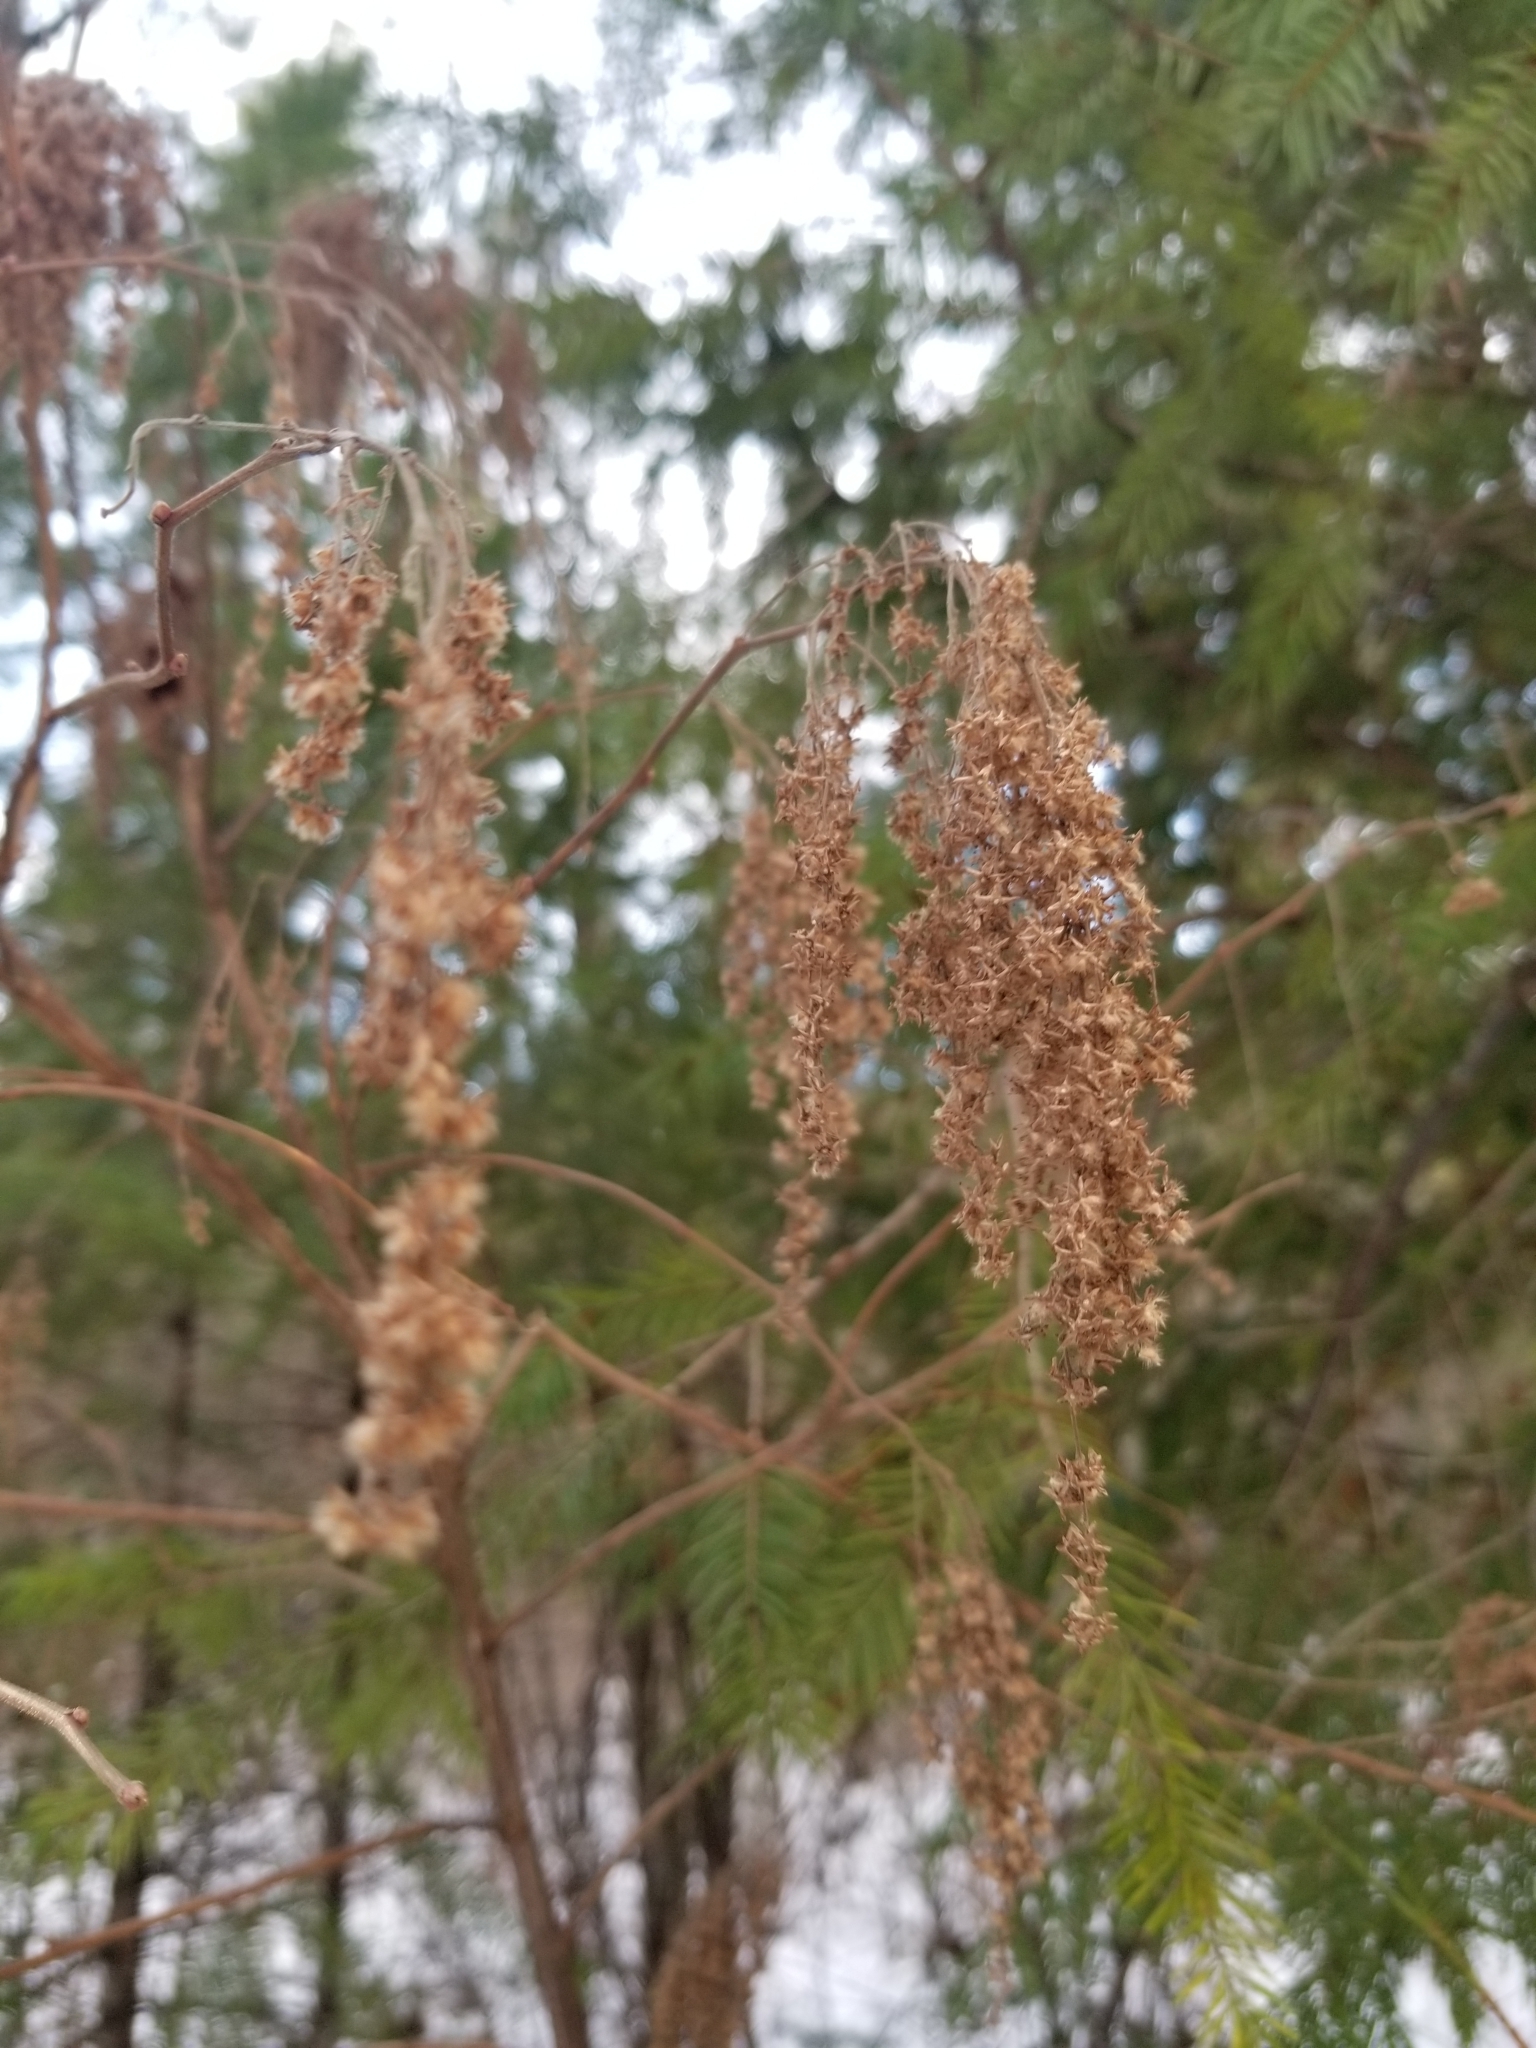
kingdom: Plantae
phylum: Tracheophyta
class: Magnoliopsida
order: Rosales
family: Rosaceae
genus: Holodiscus
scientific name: Holodiscus discolor
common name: Oceanspray
